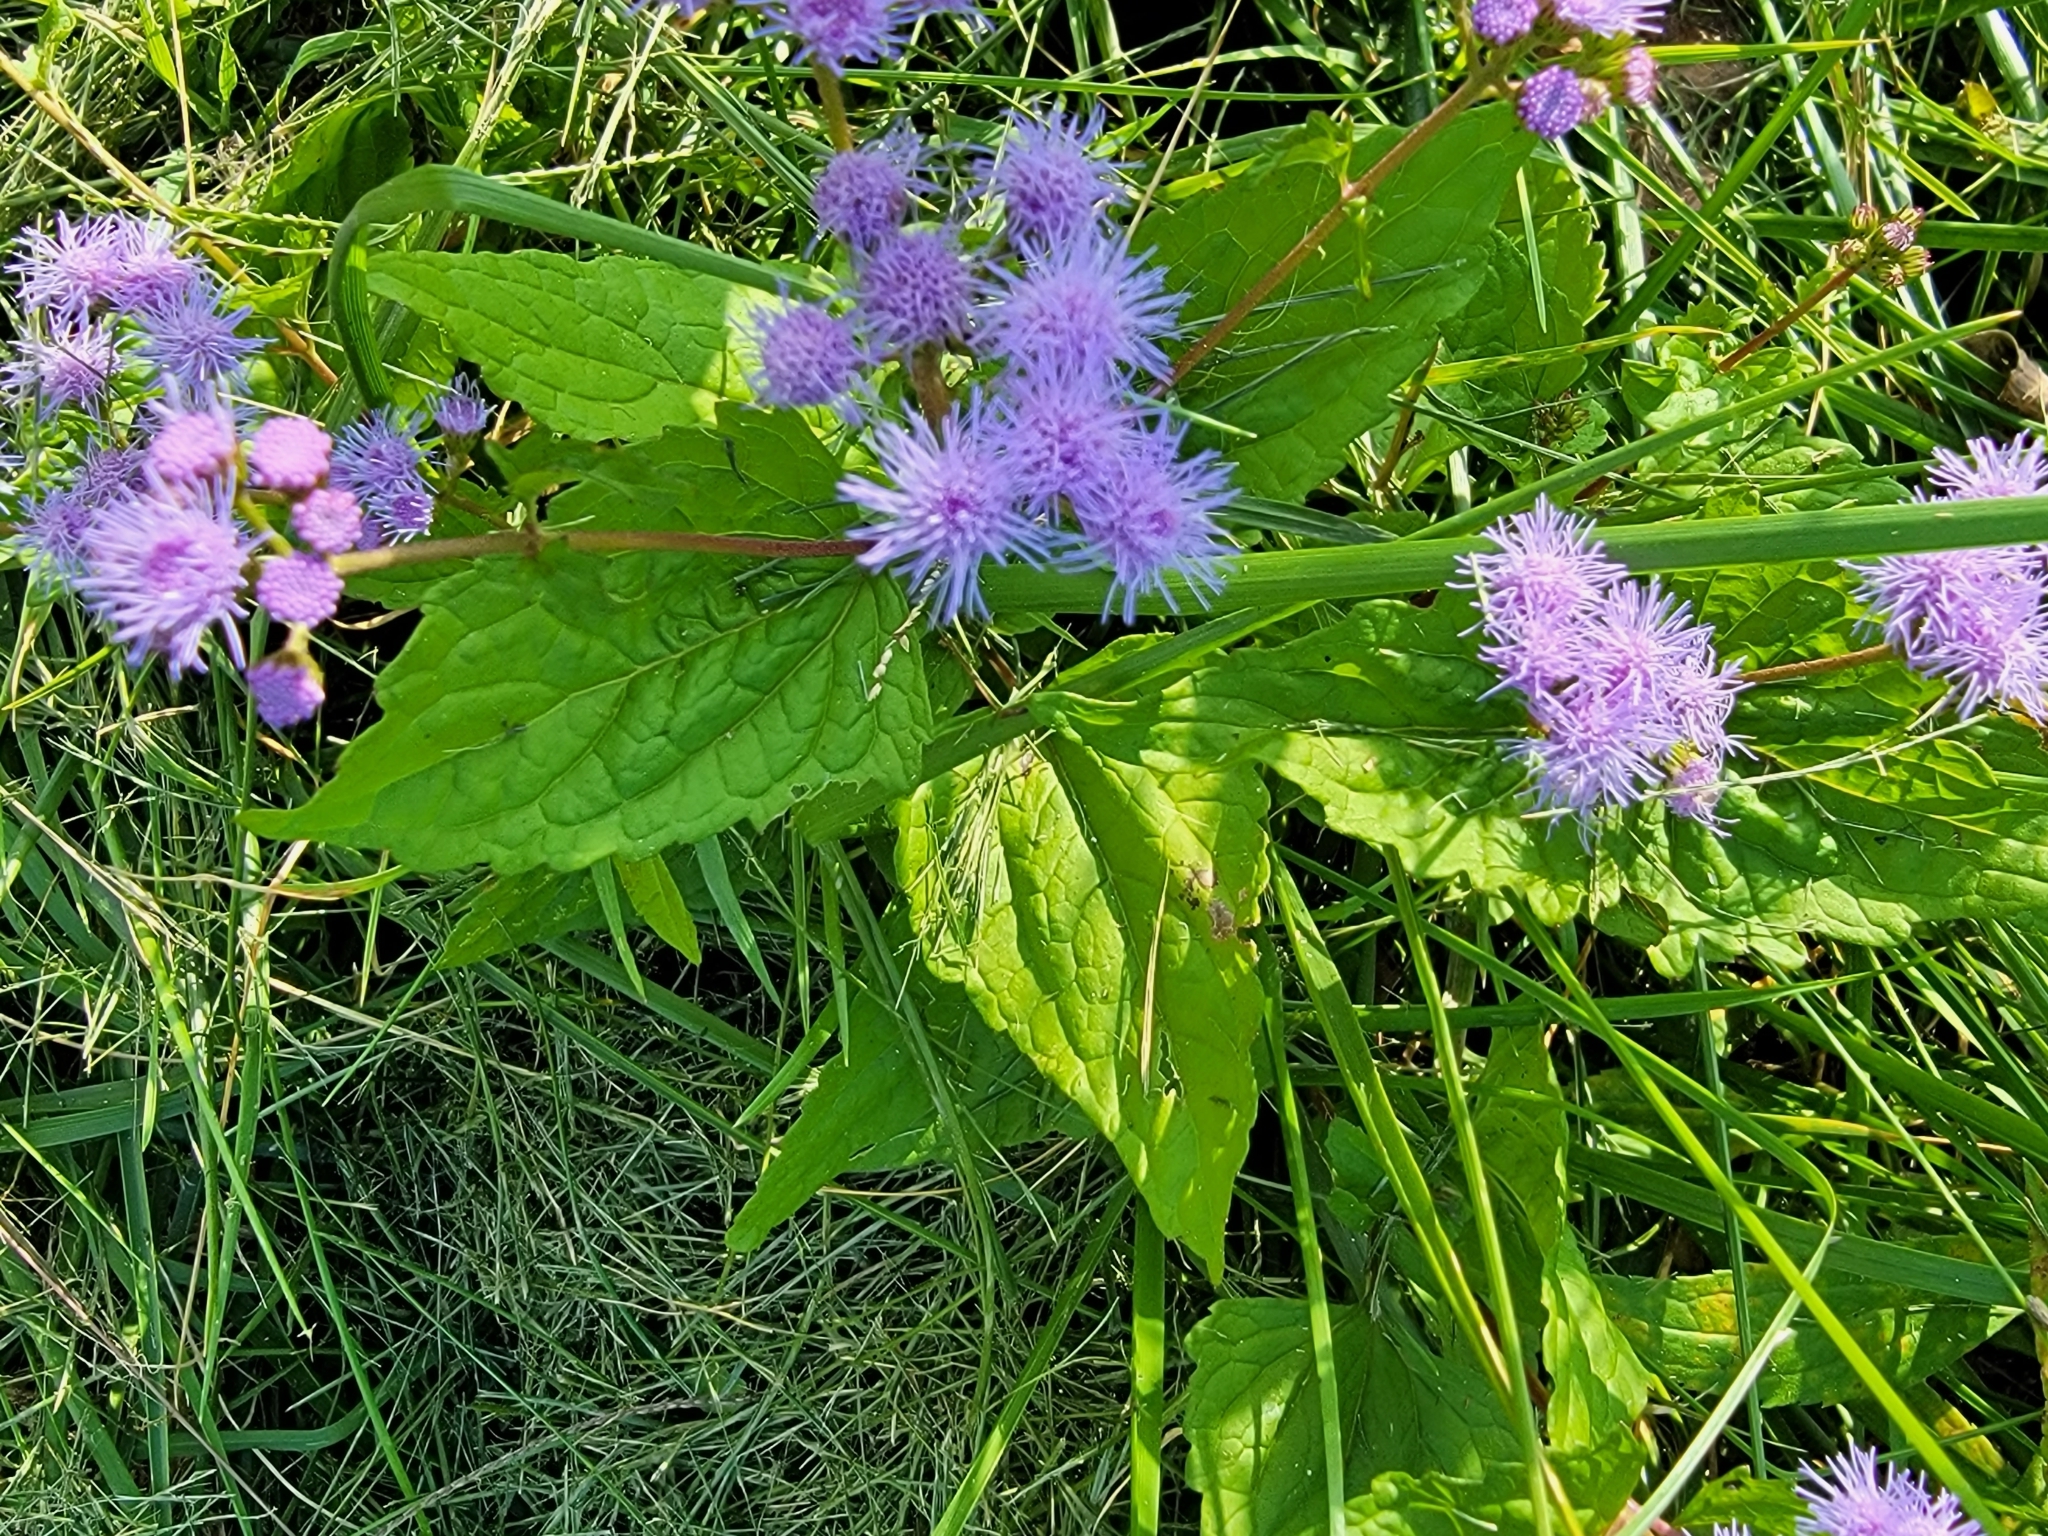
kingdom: Plantae
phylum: Tracheophyta
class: Magnoliopsida
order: Asterales
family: Asteraceae
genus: Conoclinium
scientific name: Conoclinium coelestinum
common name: Blue mistflower
